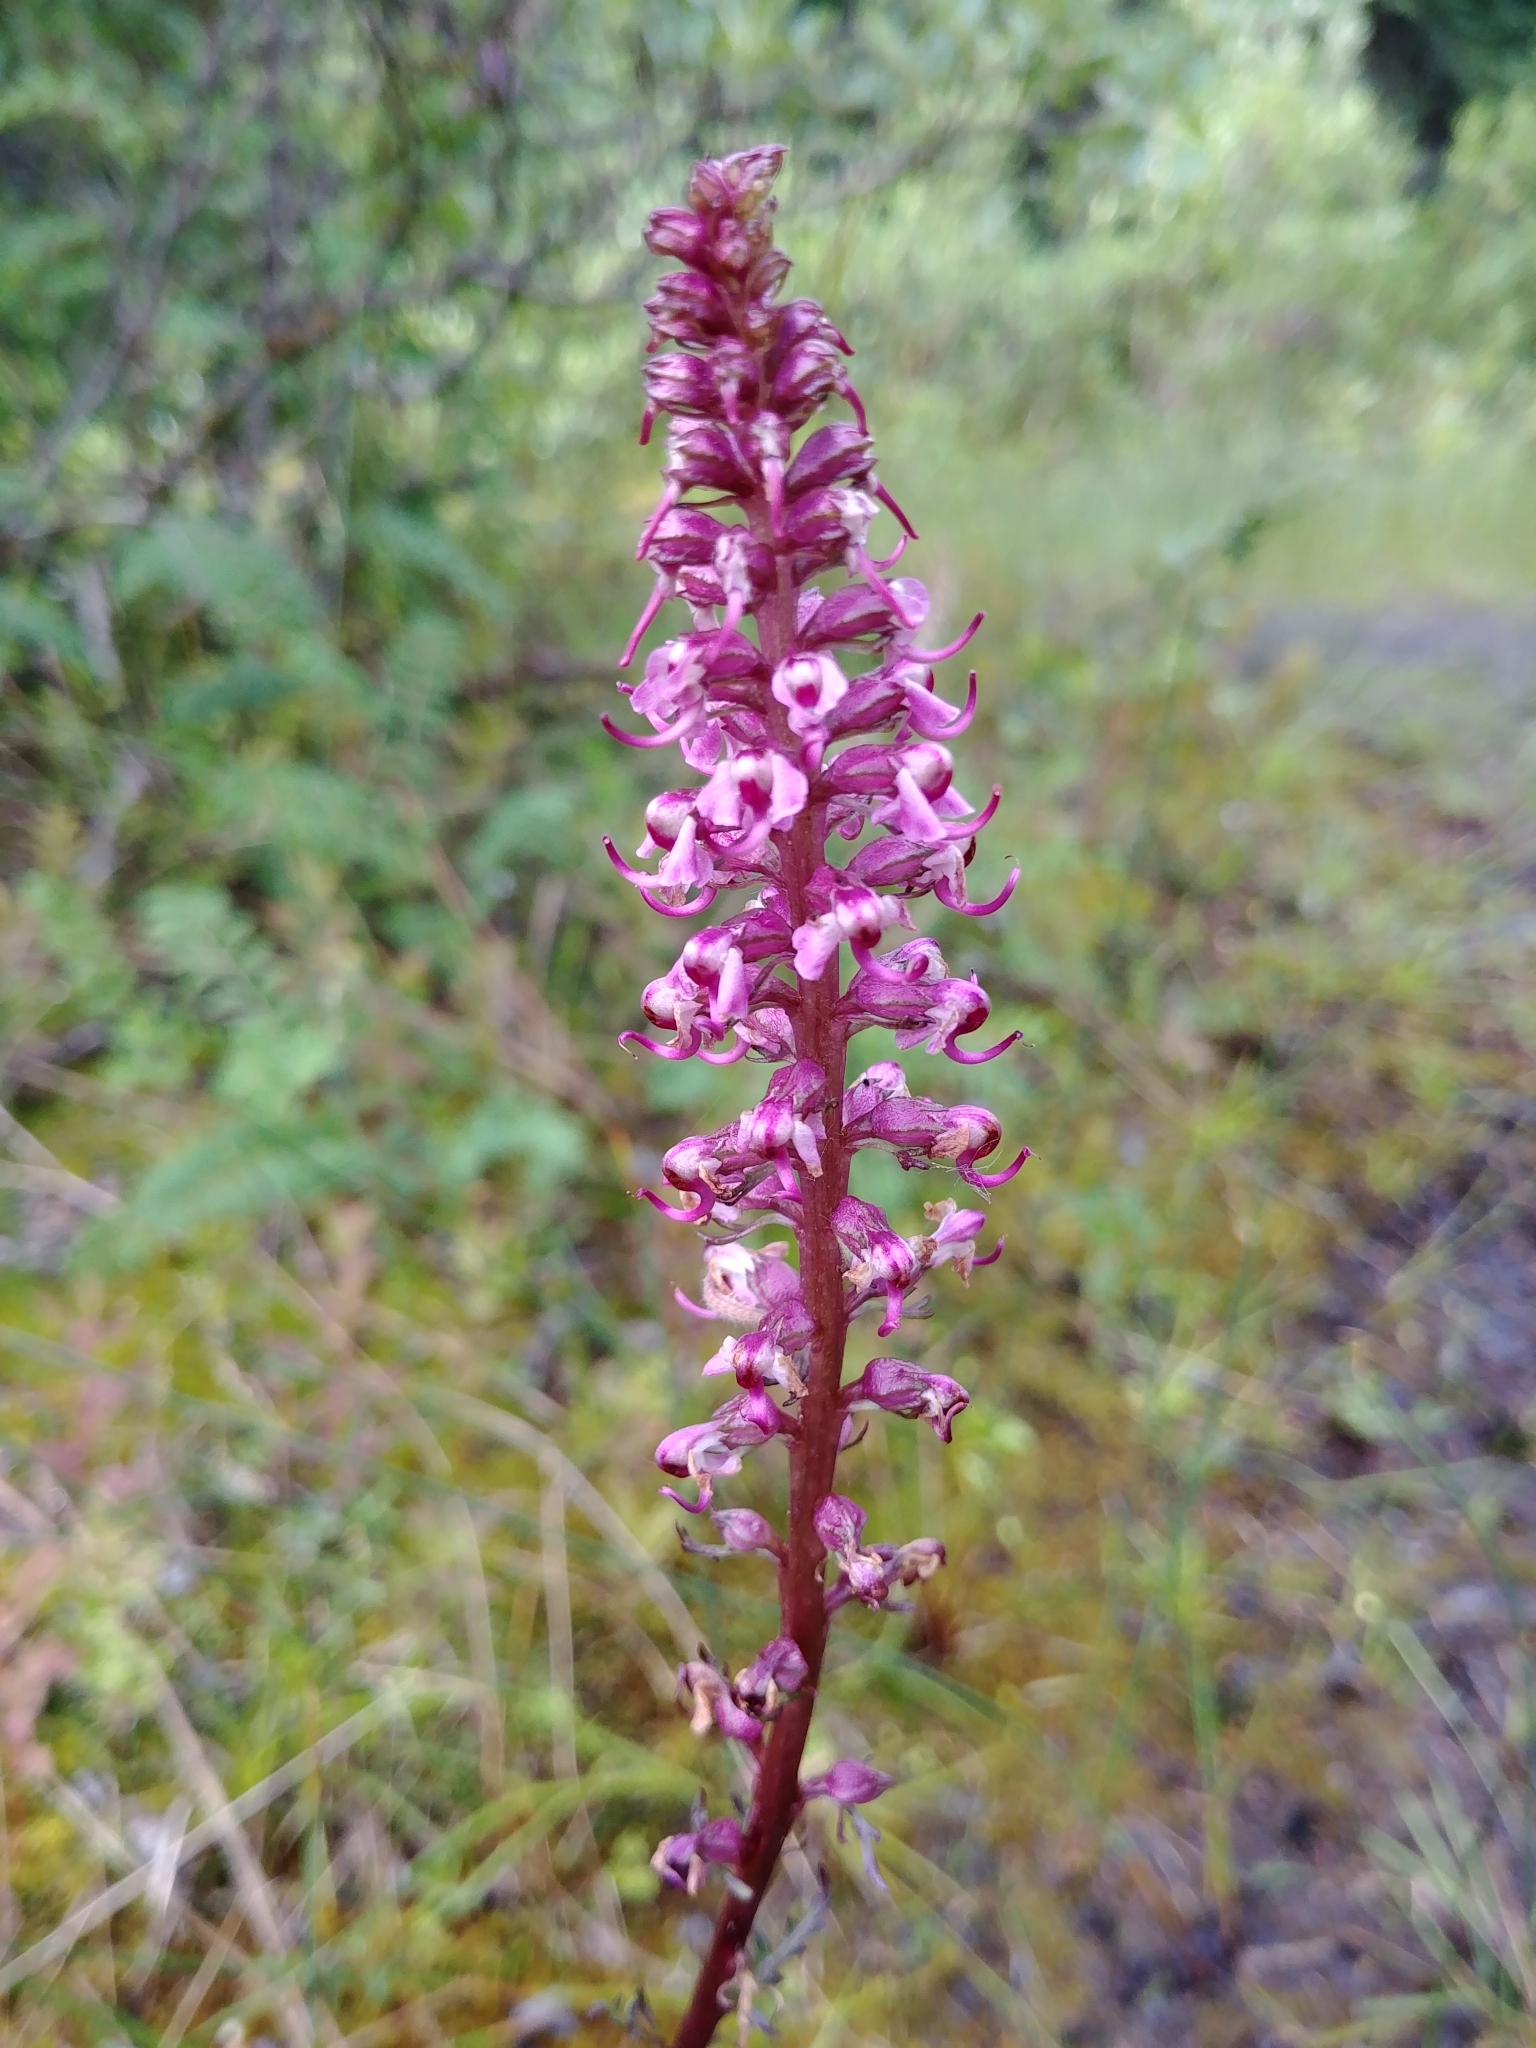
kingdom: Plantae
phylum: Tracheophyta
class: Magnoliopsida
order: Lamiales
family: Orobanchaceae
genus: Pedicularis
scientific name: Pedicularis groenlandica
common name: Elephant's-head
